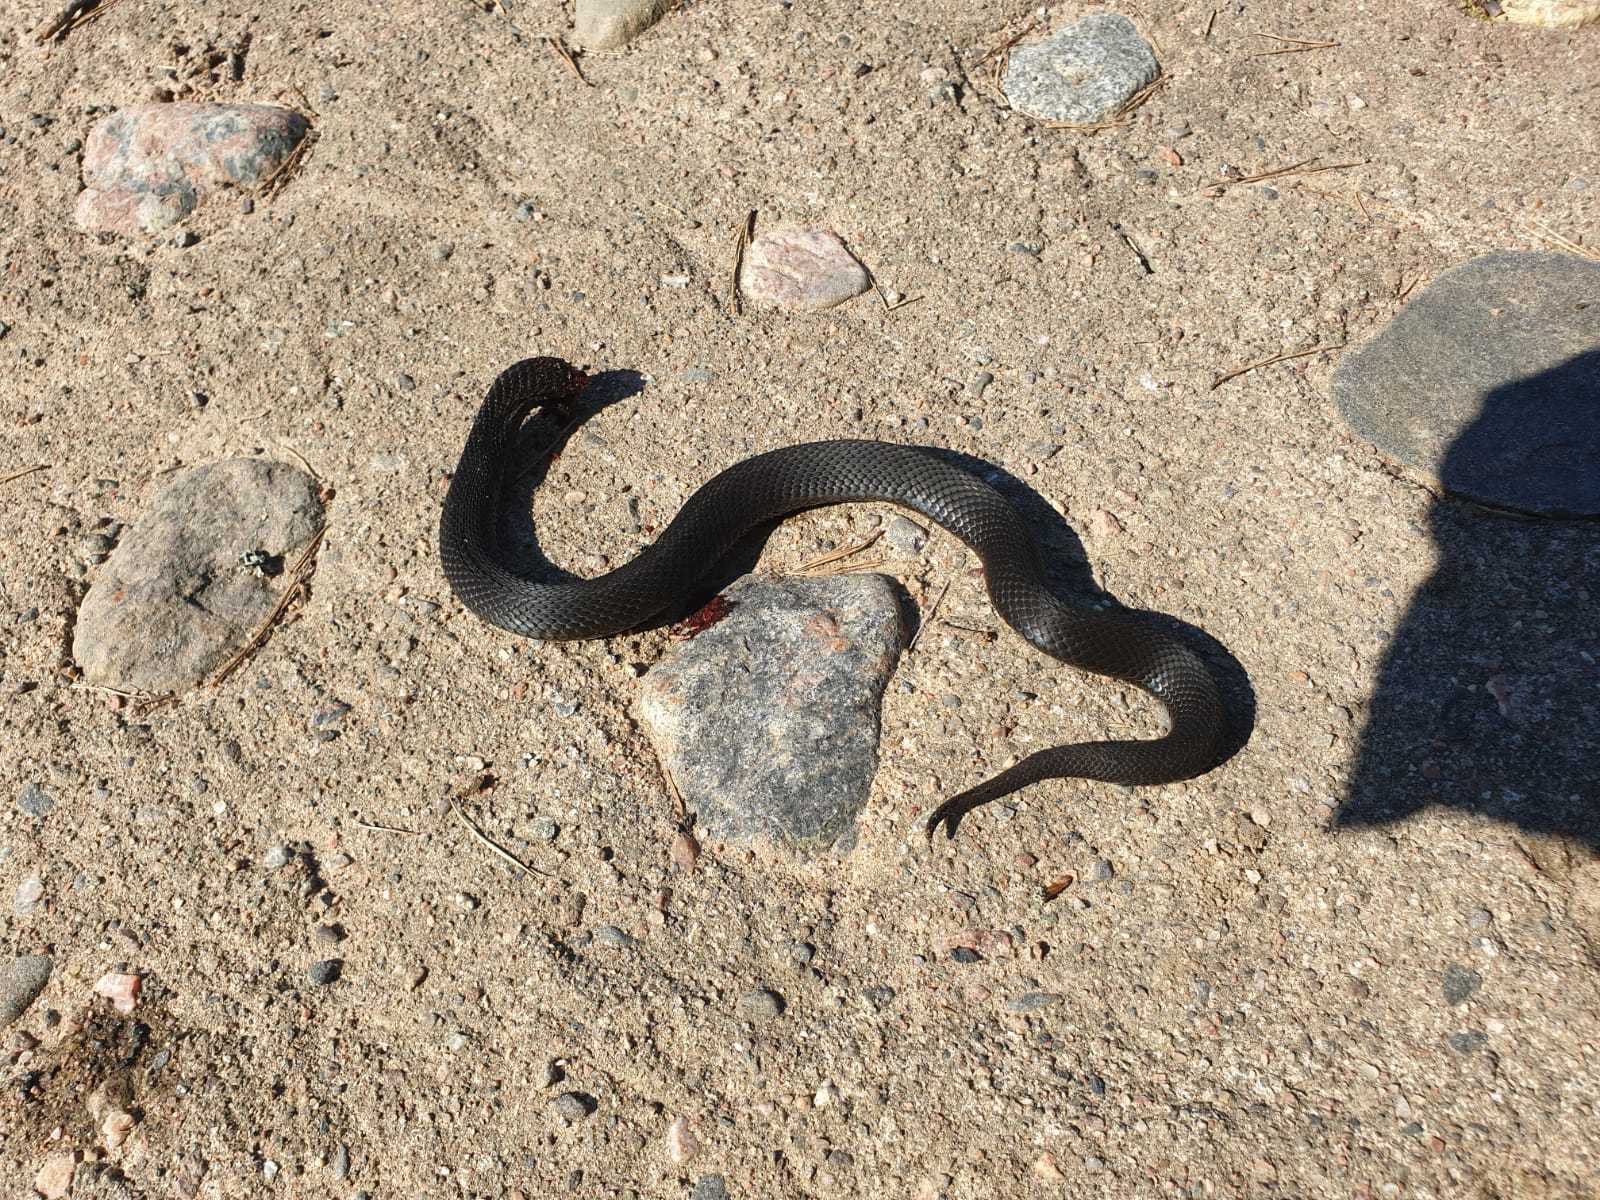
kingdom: Animalia
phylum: Chordata
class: Squamata
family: Viperidae
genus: Vipera
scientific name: Vipera berus
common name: Adder
